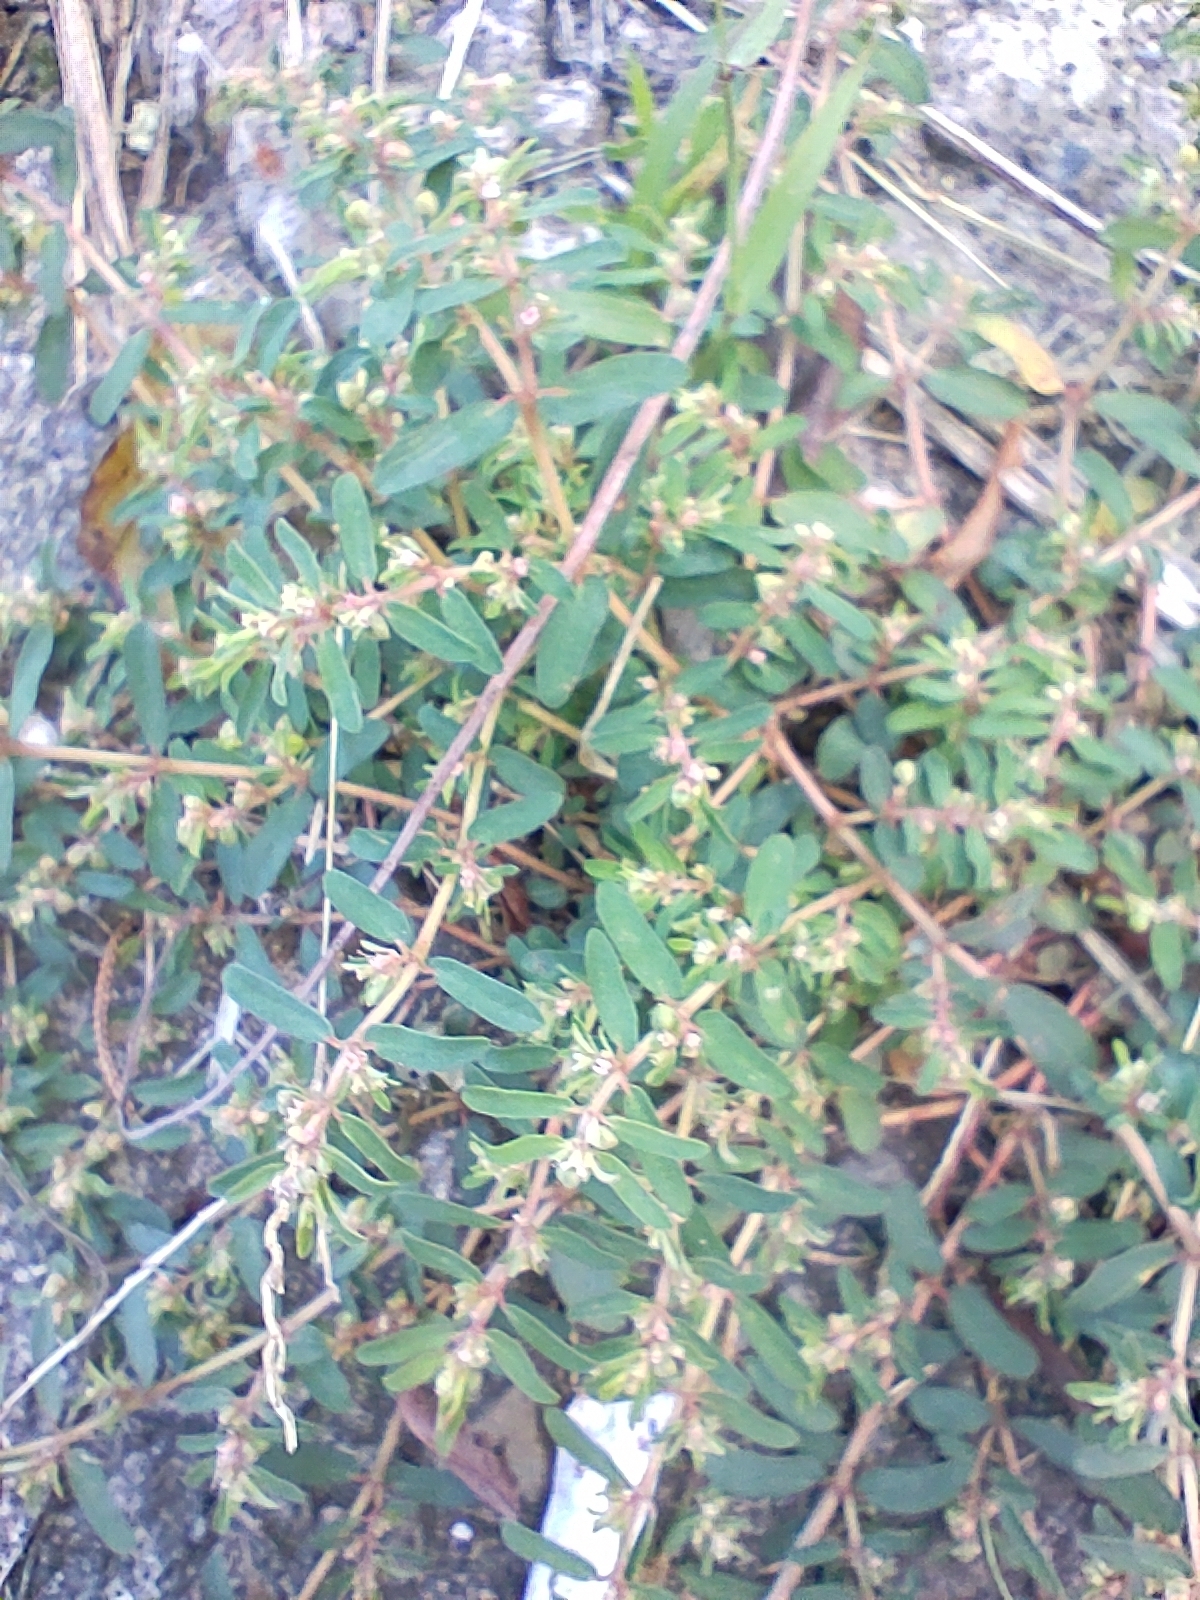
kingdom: Plantae
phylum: Tracheophyta
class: Magnoliopsida
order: Malpighiales
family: Euphorbiaceae
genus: Euphorbia
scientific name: Euphorbia maculata
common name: Spotted spurge
